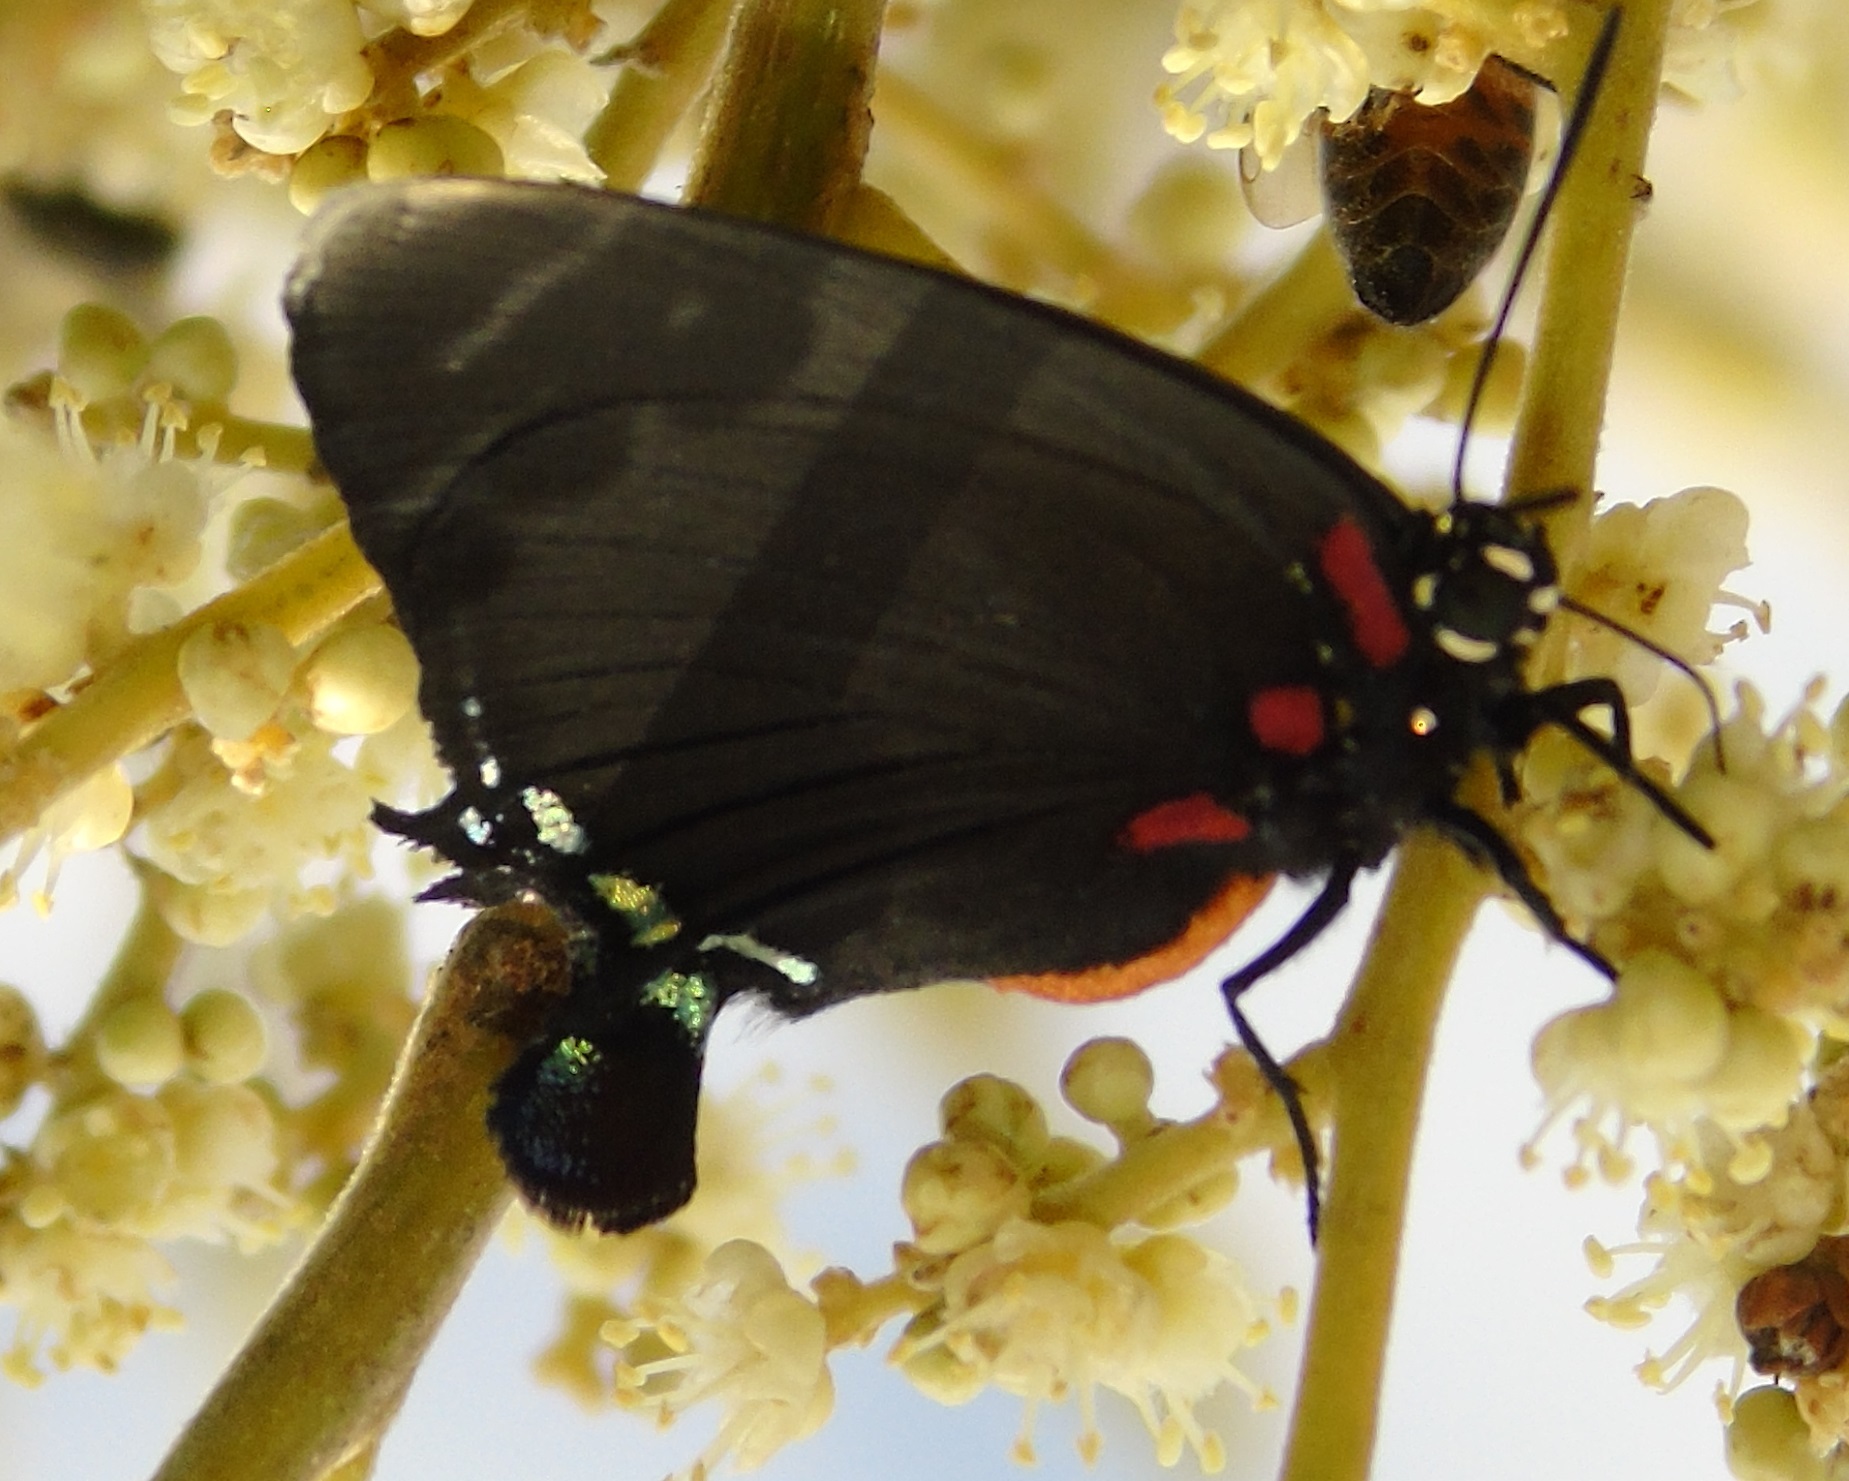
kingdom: Animalia
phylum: Arthropoda
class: Insecta
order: Lepidoptera
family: Lycaenidae
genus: Atlides
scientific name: Atlides halesus
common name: Great purple hairstreak
